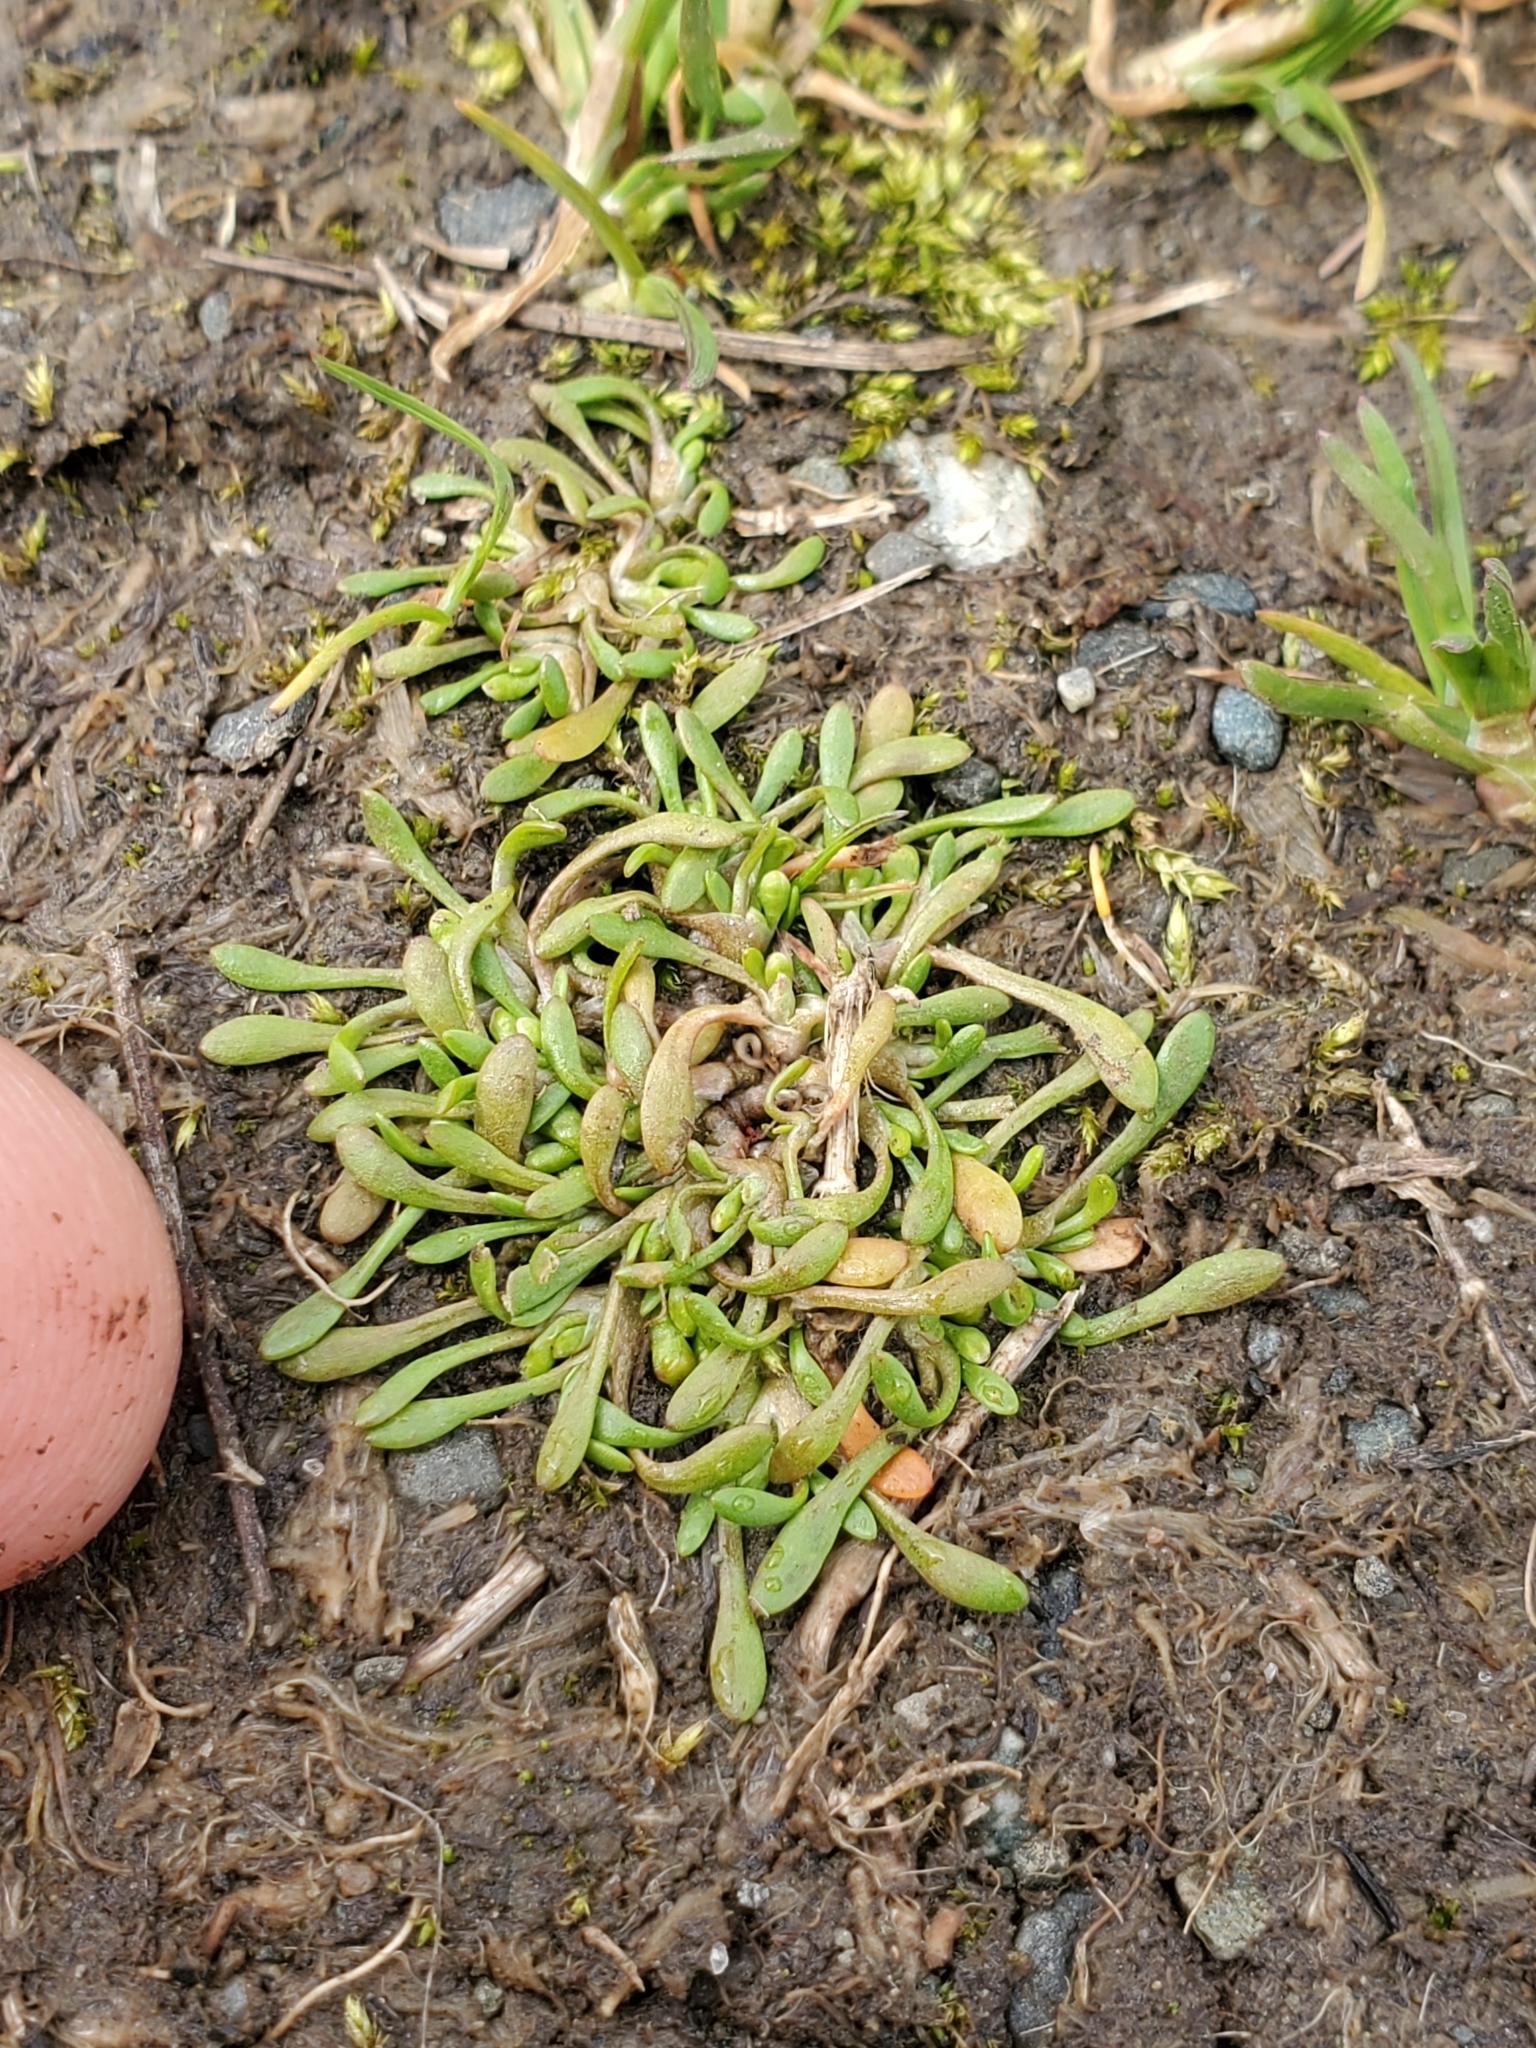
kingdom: Plantae
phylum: Tracheophyta
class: Magnoliopsida
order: Caryophyllales
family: Montiaceae
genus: Montia
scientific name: Montia howellii
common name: Howell's miner's-lettuce
